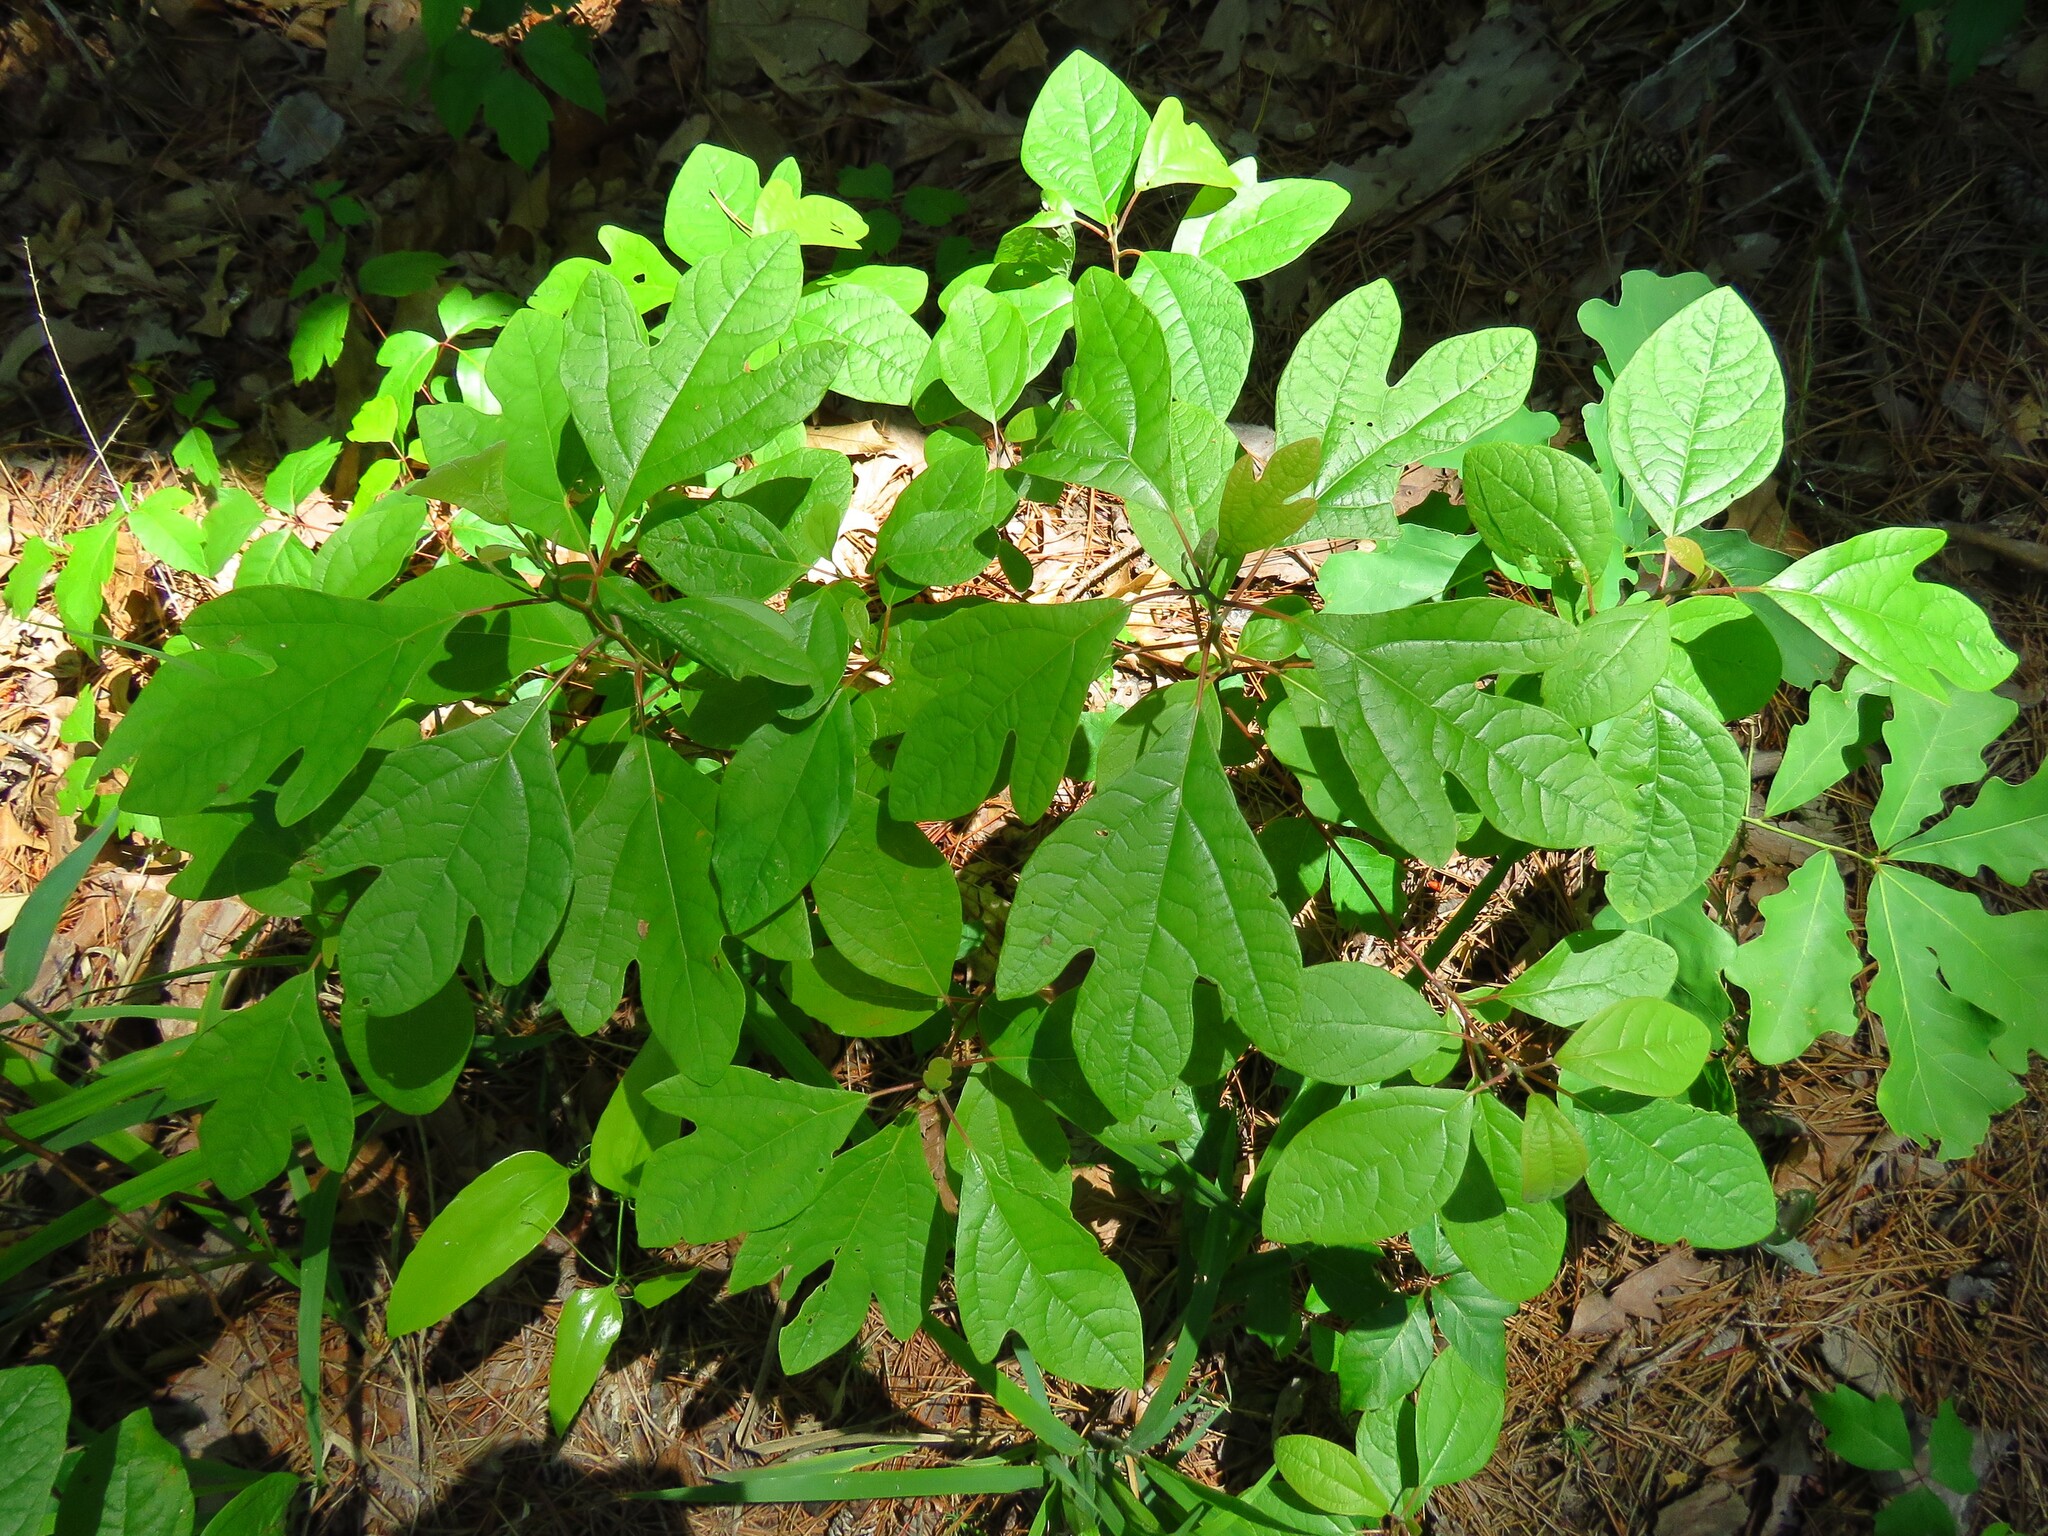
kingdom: Plantae
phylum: Tracheophyta
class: Magnoliopsida
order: Laurales
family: Lauraceae
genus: Sassafras
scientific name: Sassafras albidum
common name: Sassafras
